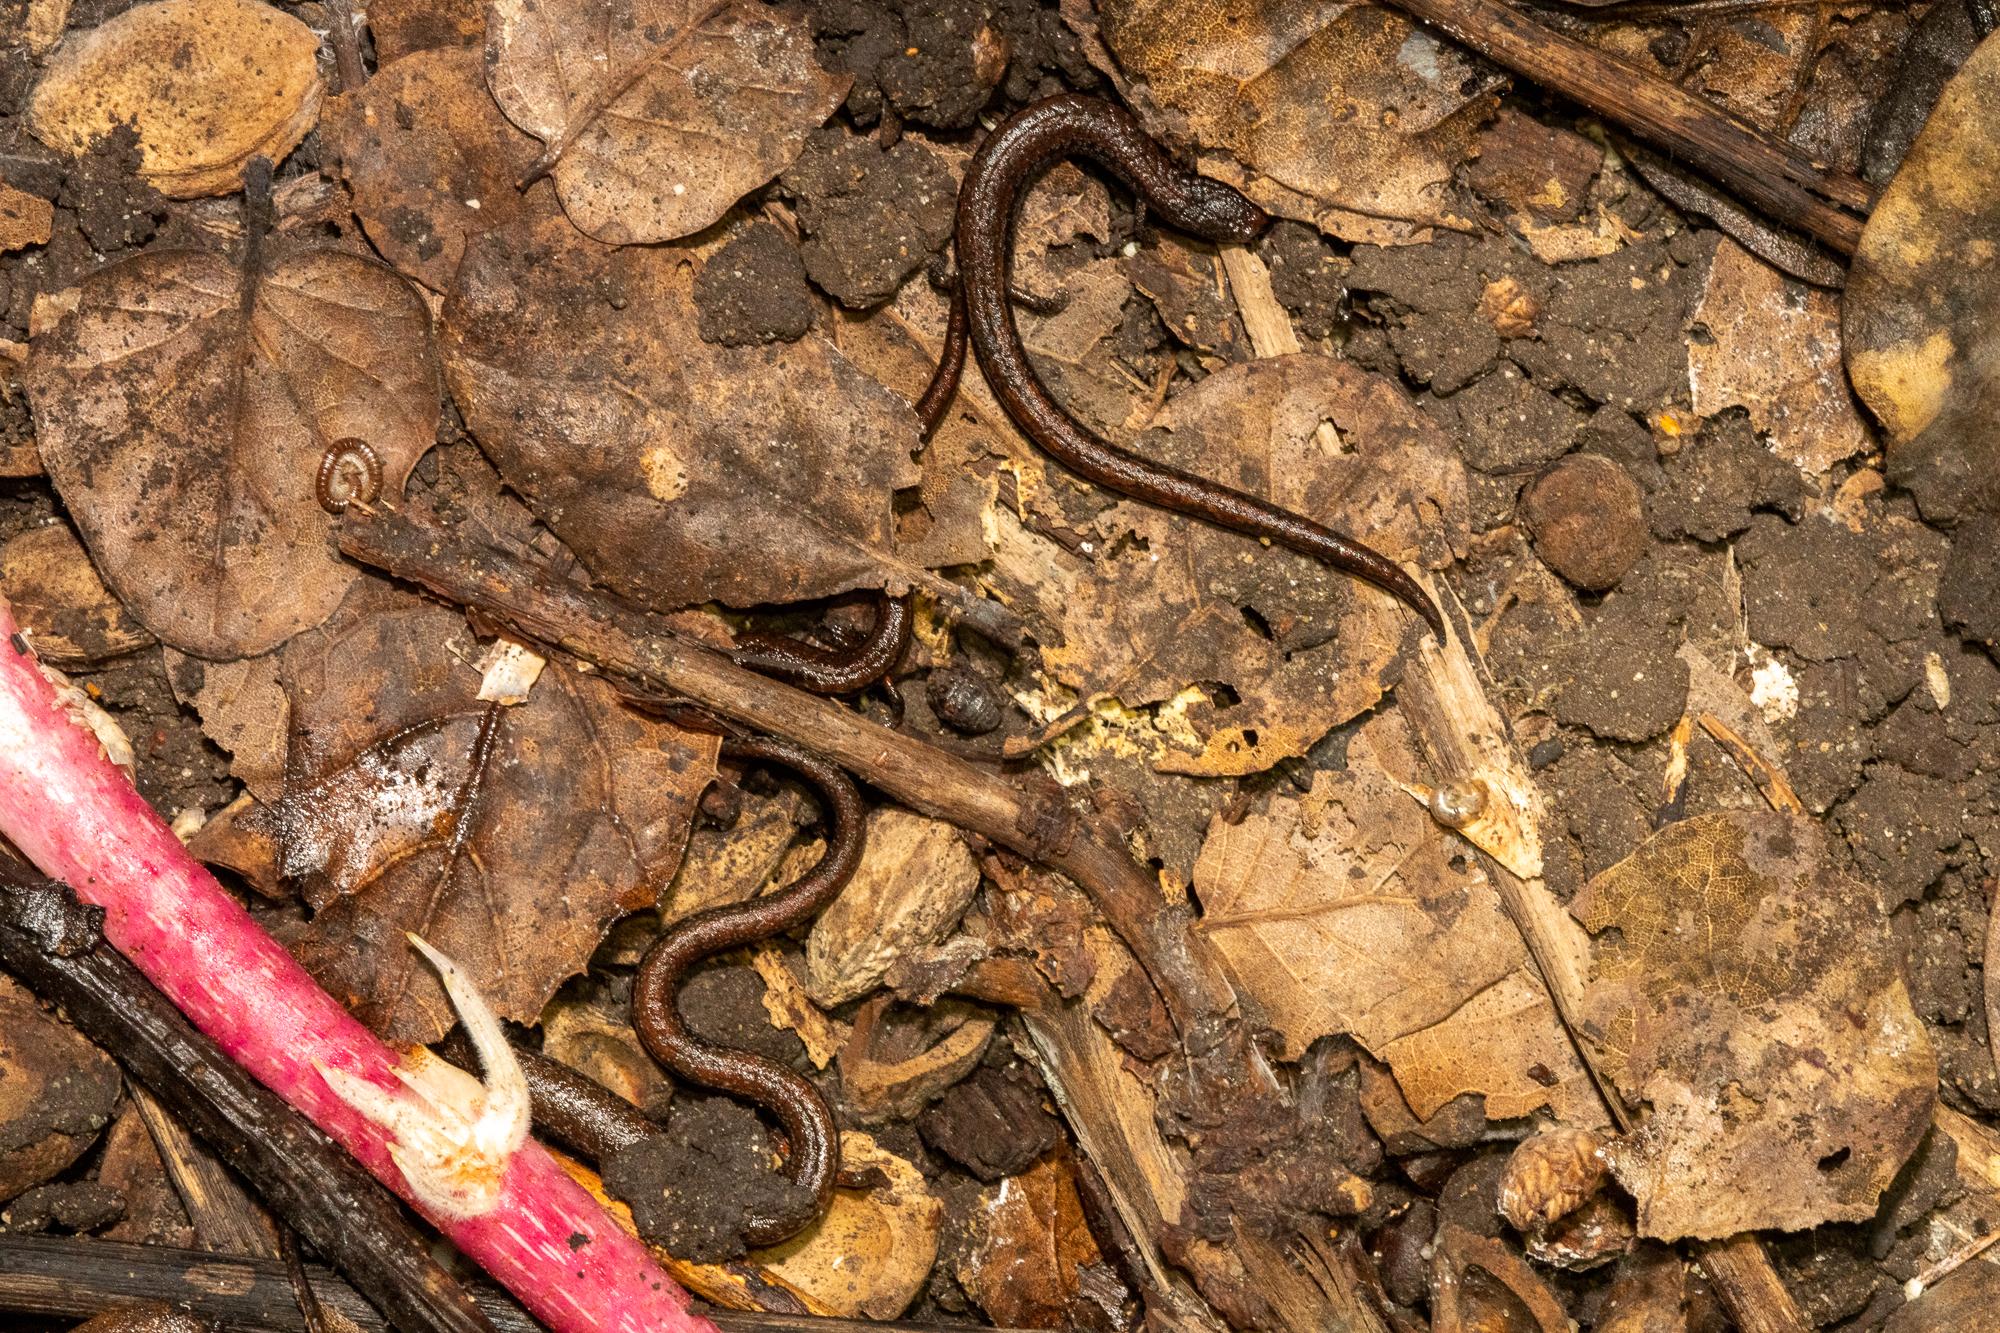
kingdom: Animalia
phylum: Chordata
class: Amphibia
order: Caudata
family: Plethodontidae
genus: Batrachoseps
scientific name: Batrachoseps attenuatus
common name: California slender salamander
